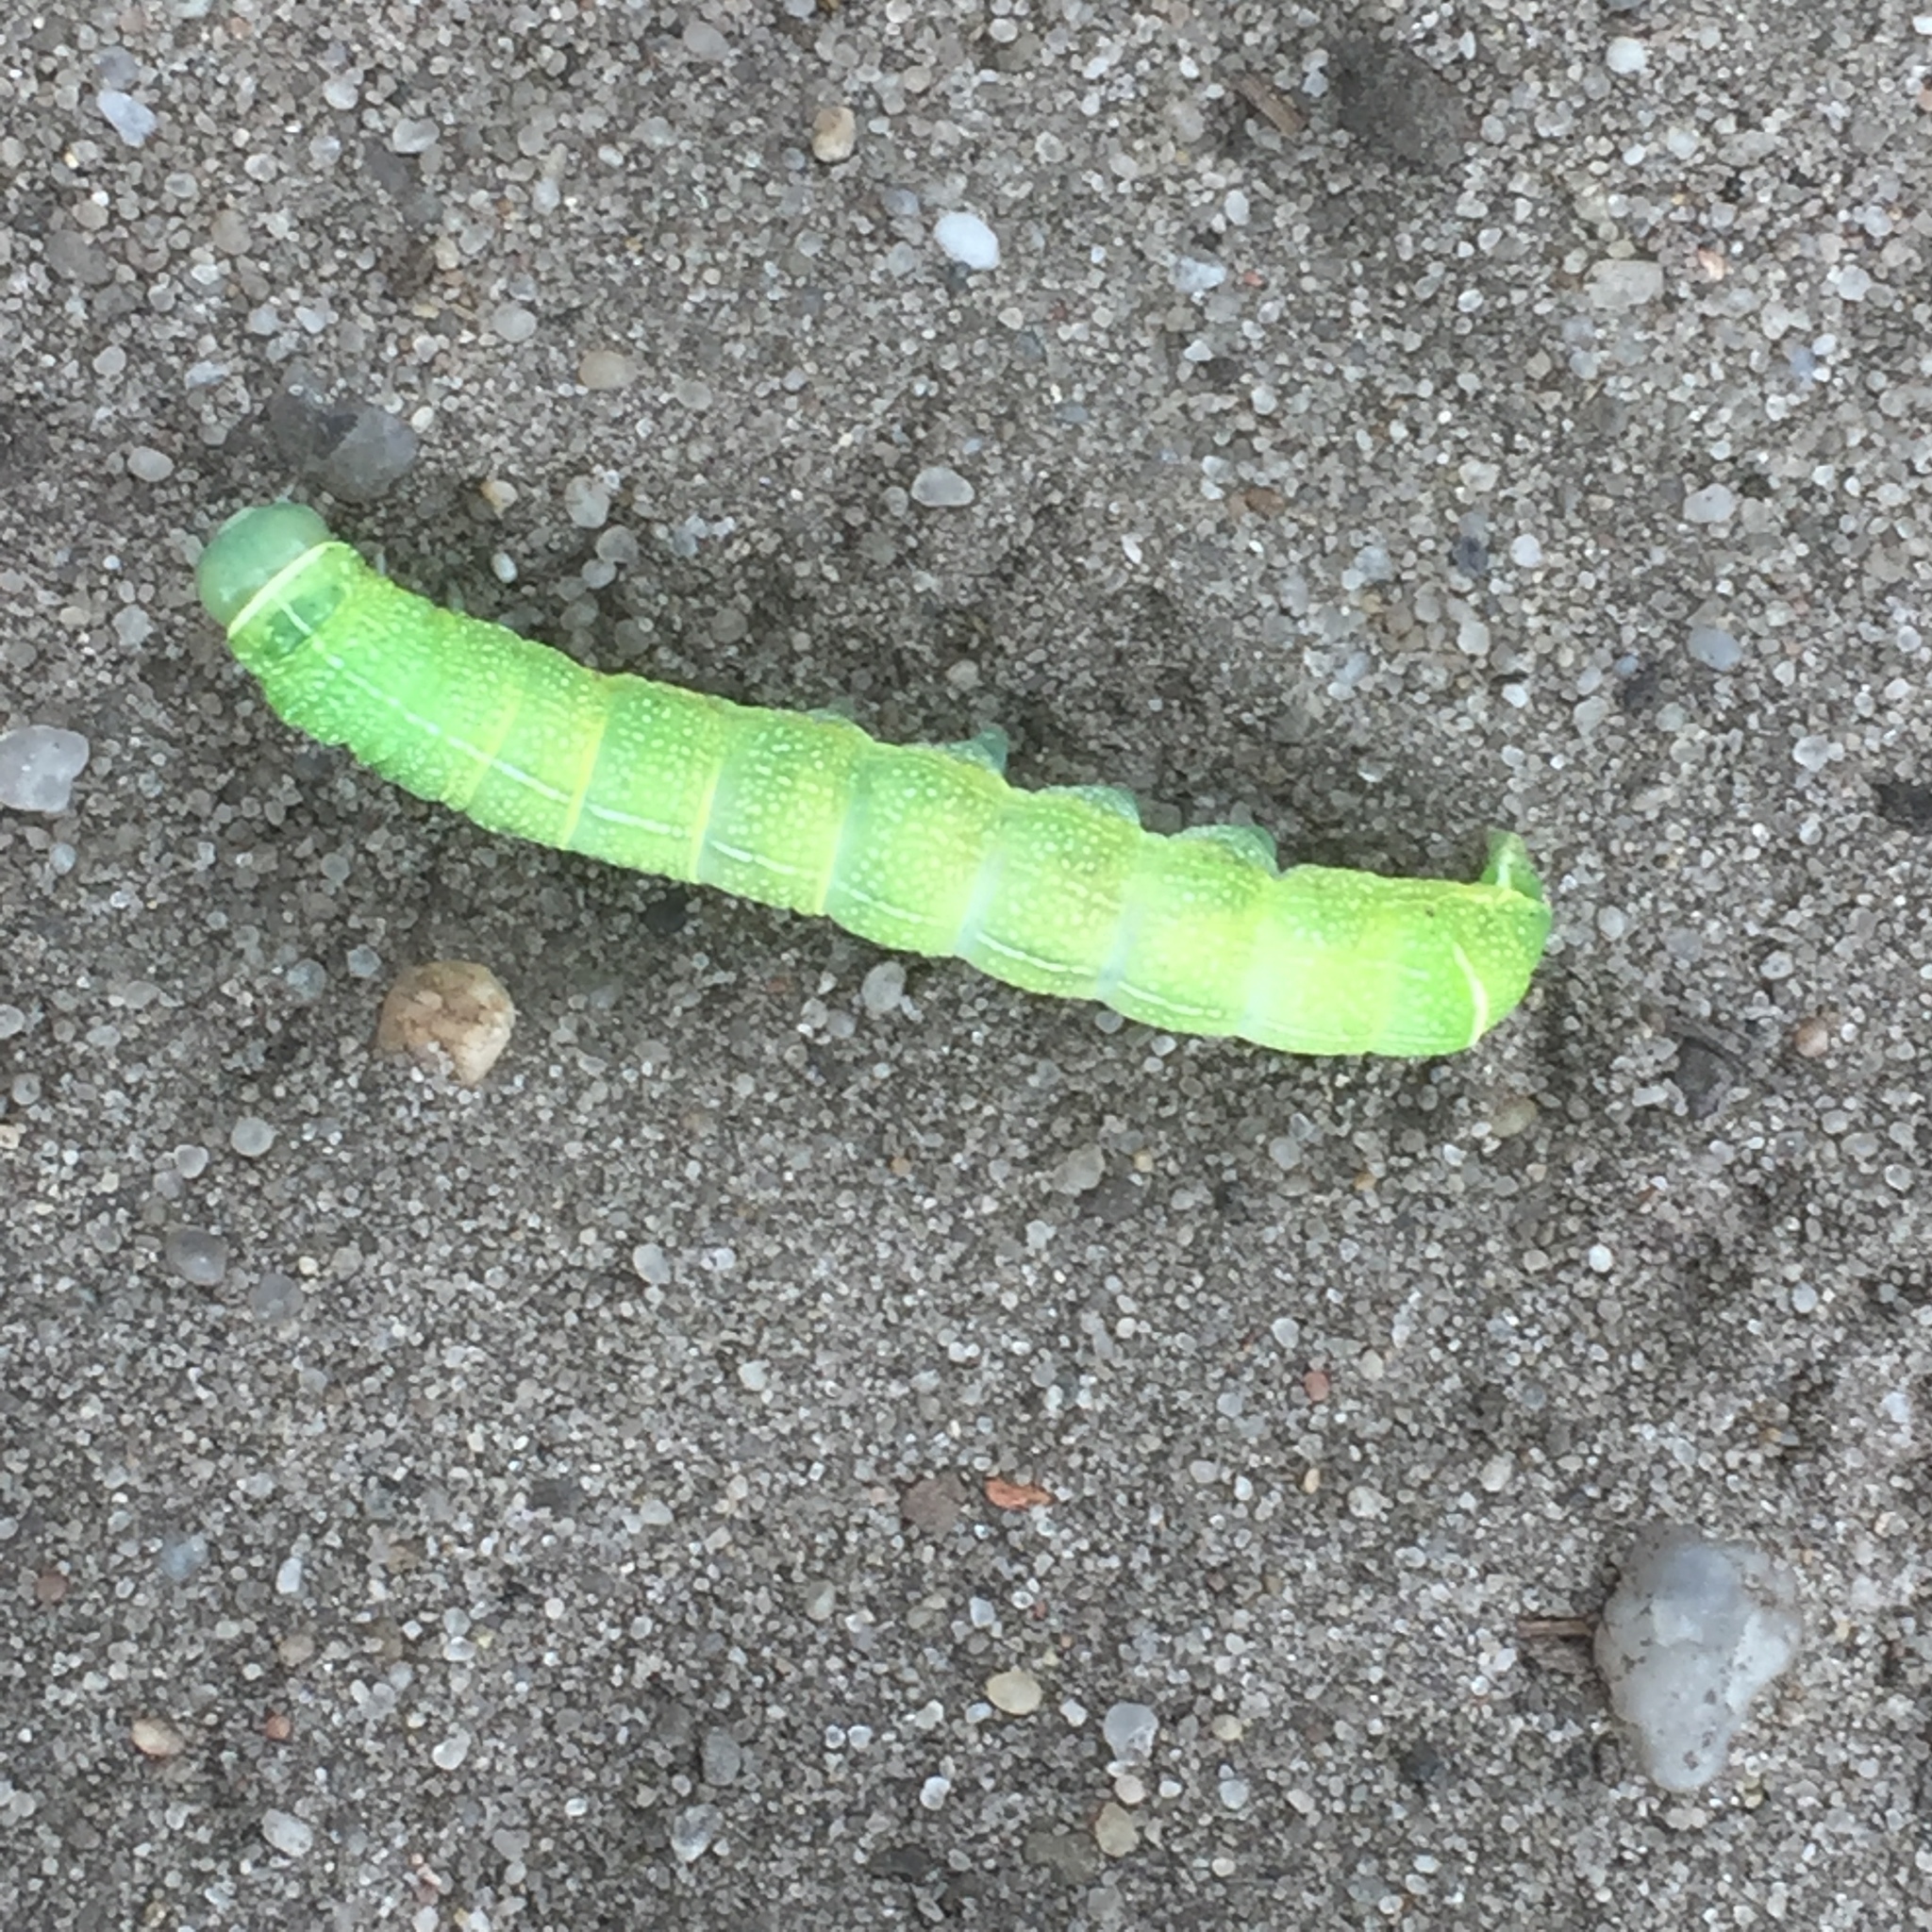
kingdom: Animalia
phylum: Arthropoda
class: Insecta
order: Lepidoptera
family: Noctuidae
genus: Orthosia
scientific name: Orthosia cerasi
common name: Common quaker
